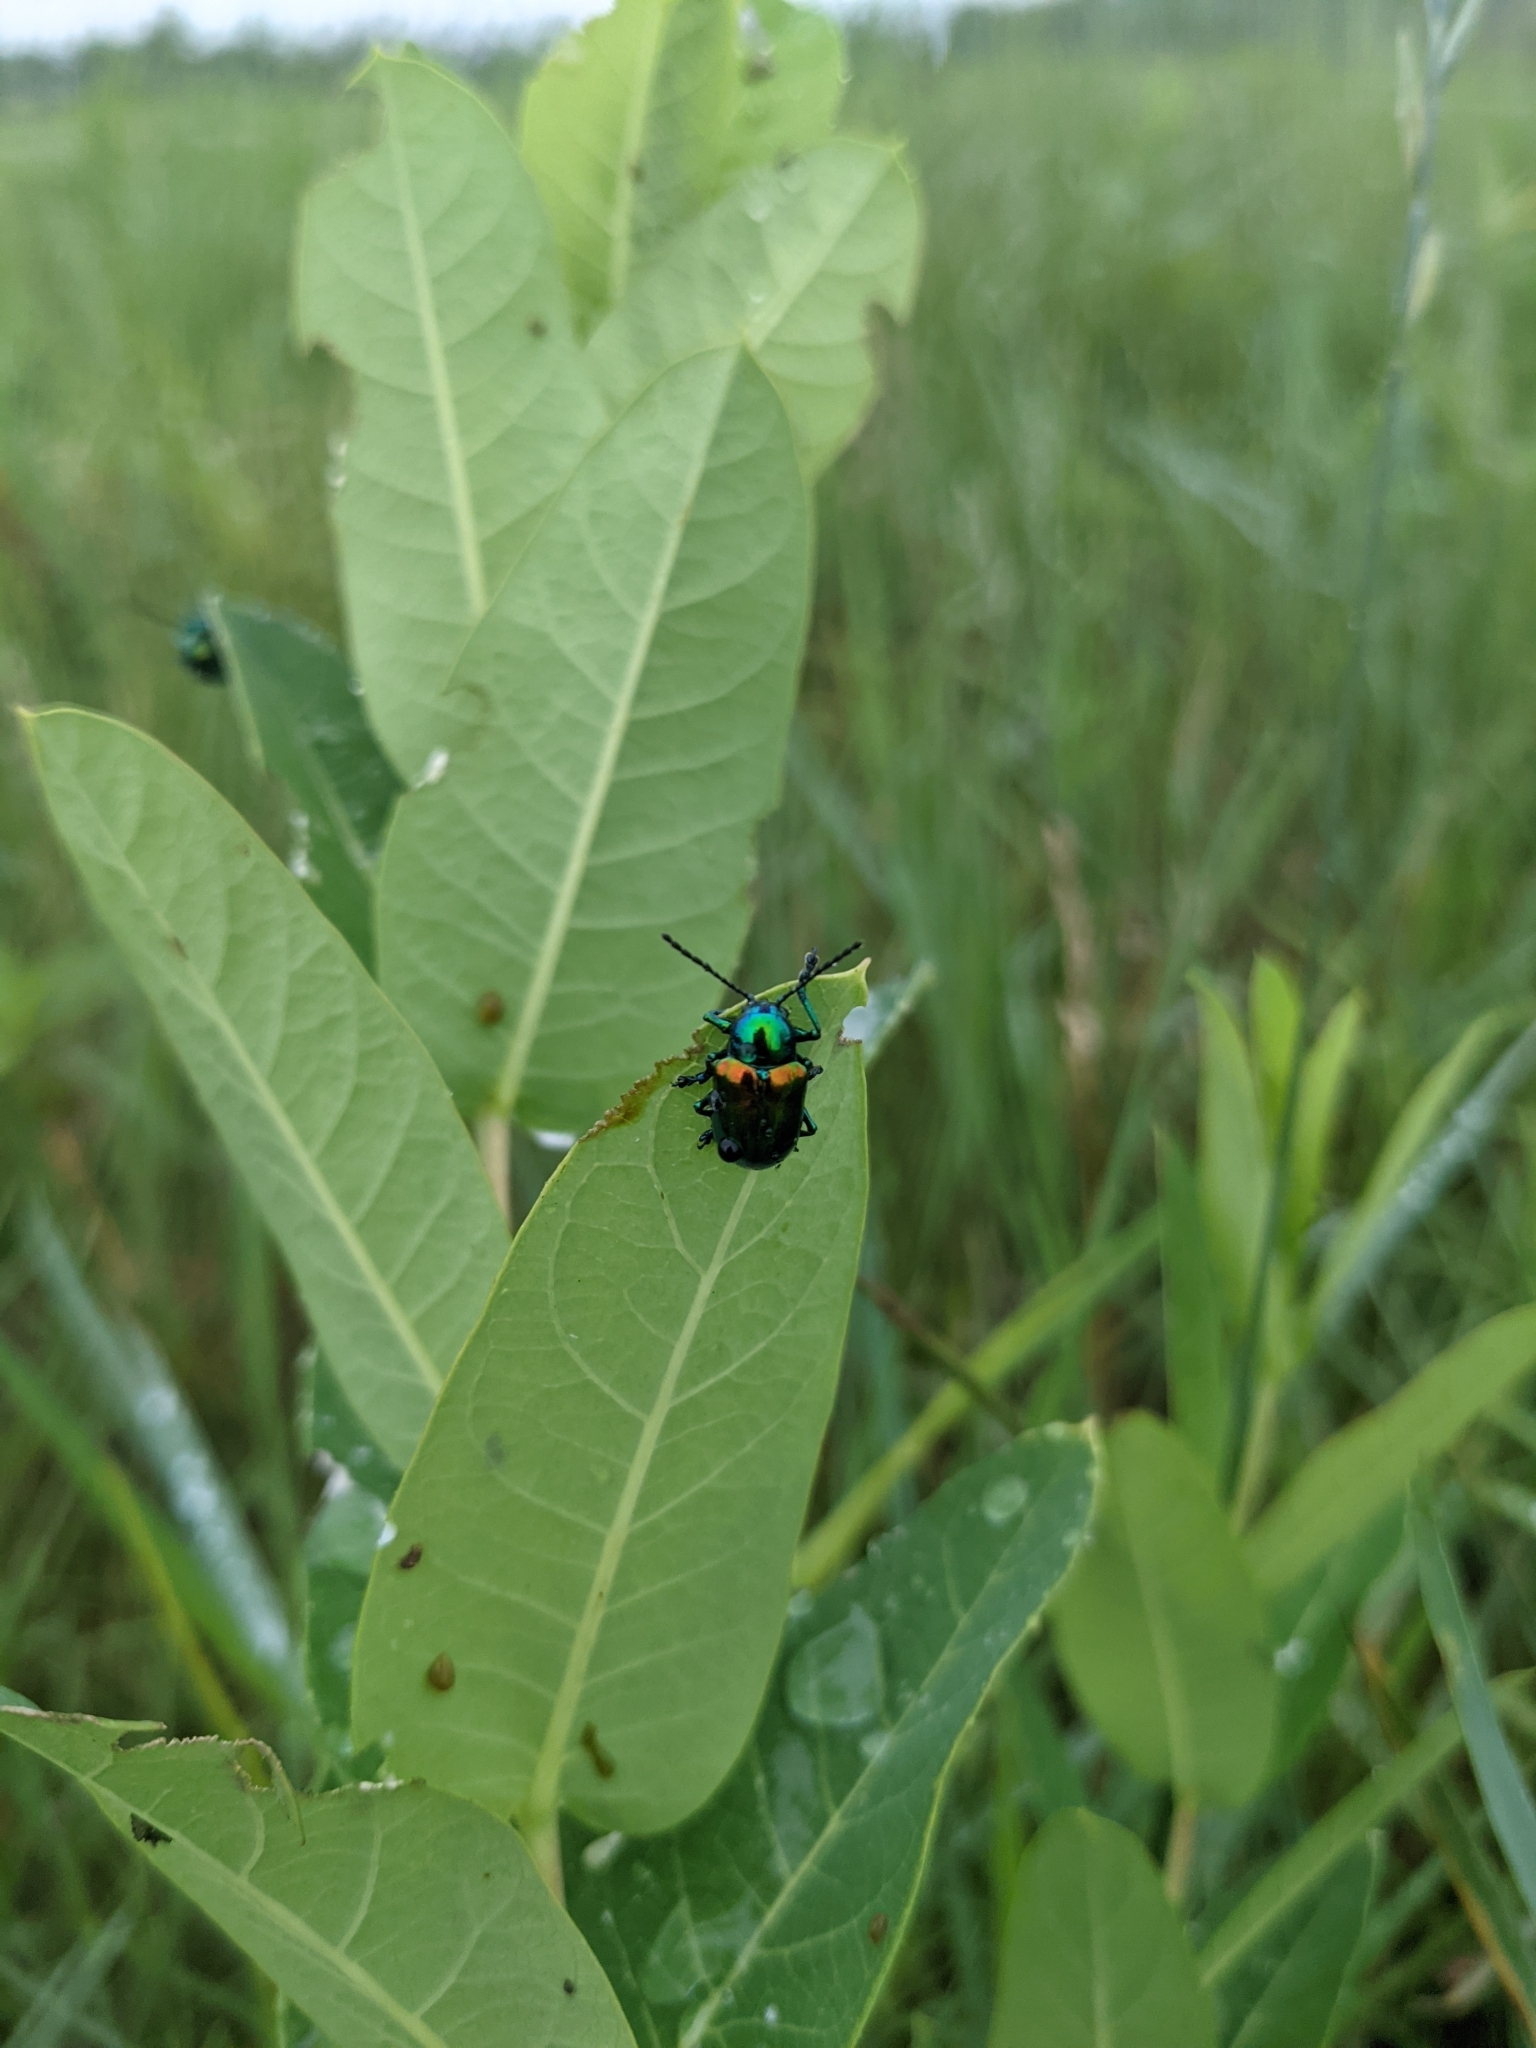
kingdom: Animalia
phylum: Arthropoda
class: Insecta
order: Coleoptera
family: Chrysomelidae
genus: Chrysochus
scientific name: Chrysochus auratus
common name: Dogbane leaf beetle
